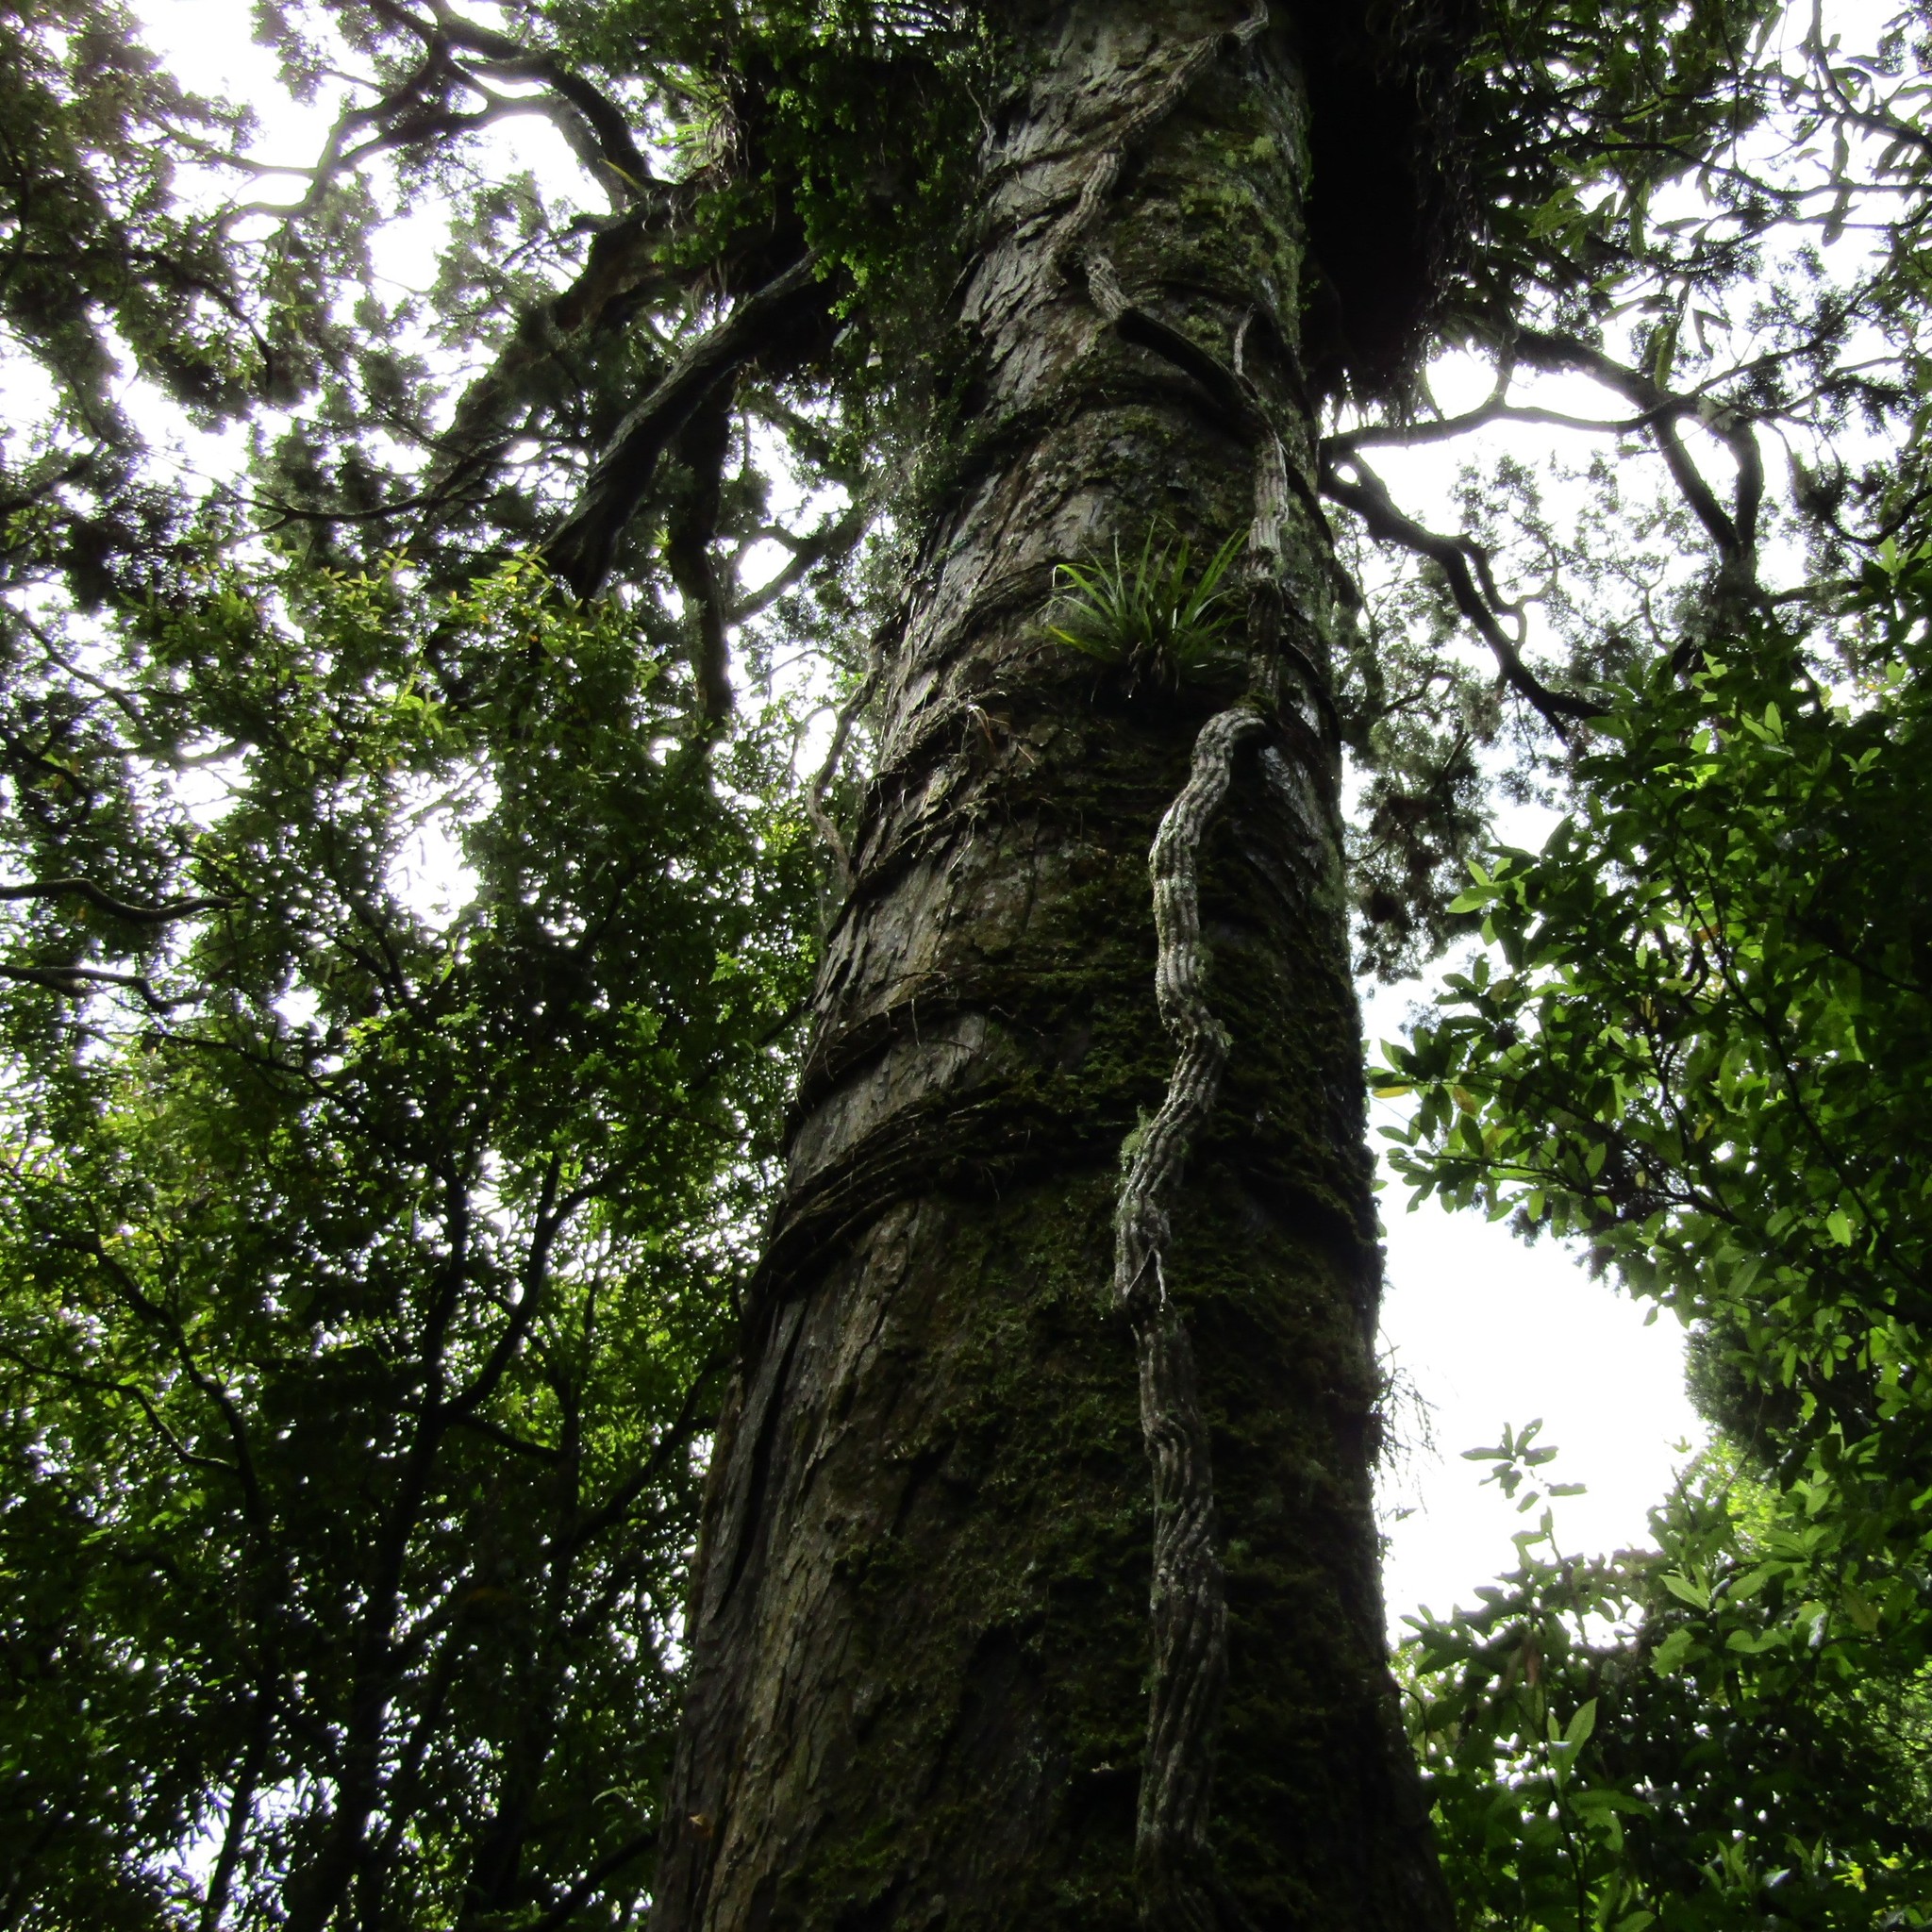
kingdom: Plantae
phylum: Tracheophyta
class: Magnoliopsida
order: Myrtales
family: Myrtaceae
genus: Metrosideros
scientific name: Metrosideros robusta
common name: Northern rata
